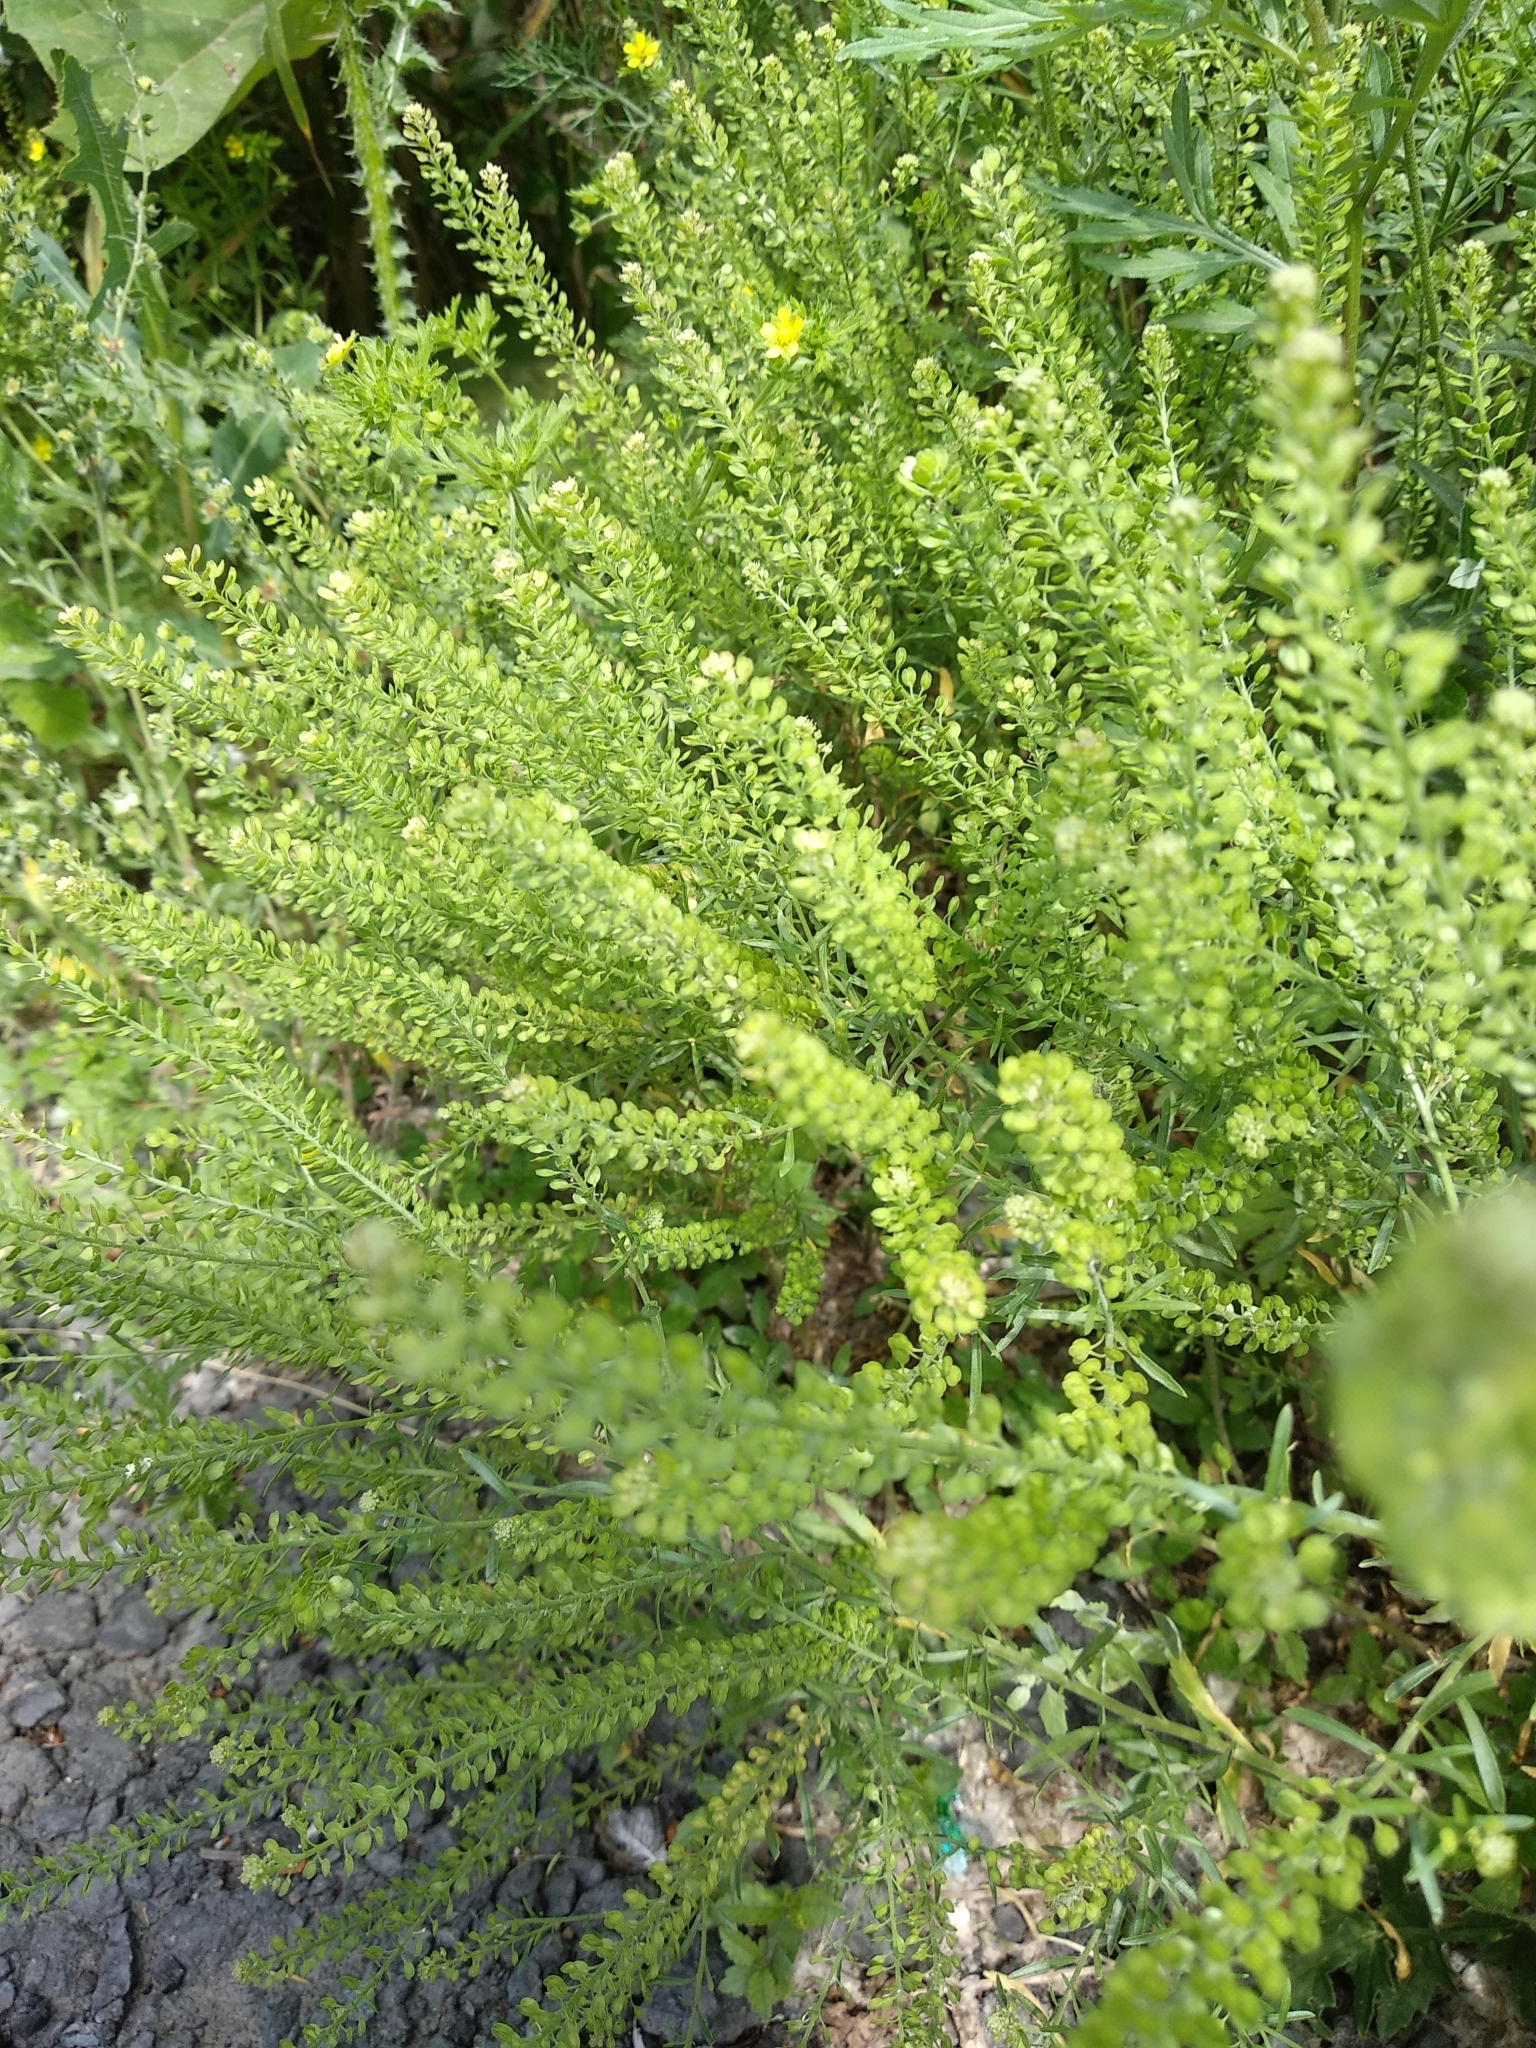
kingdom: Plantae
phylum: Tracheophyta
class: Magnoliopsida
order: Brassicales
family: Brassicaceae
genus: Lepidium
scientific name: Lepidium ruderale
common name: Narrow-leaved pepperwort
